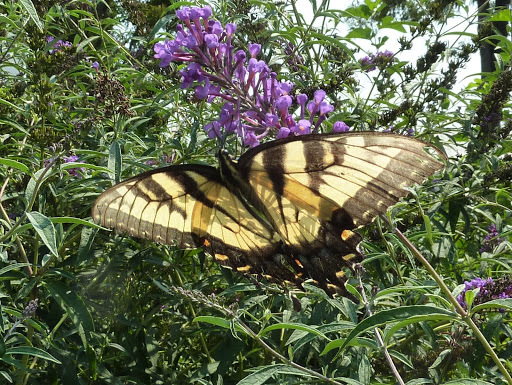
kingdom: Animalia
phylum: Arthropoda
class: Insecta
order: Lepidoptera
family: Papilionidae
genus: Papilio
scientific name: Papilio glaucus
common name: Tiger swallowtail
